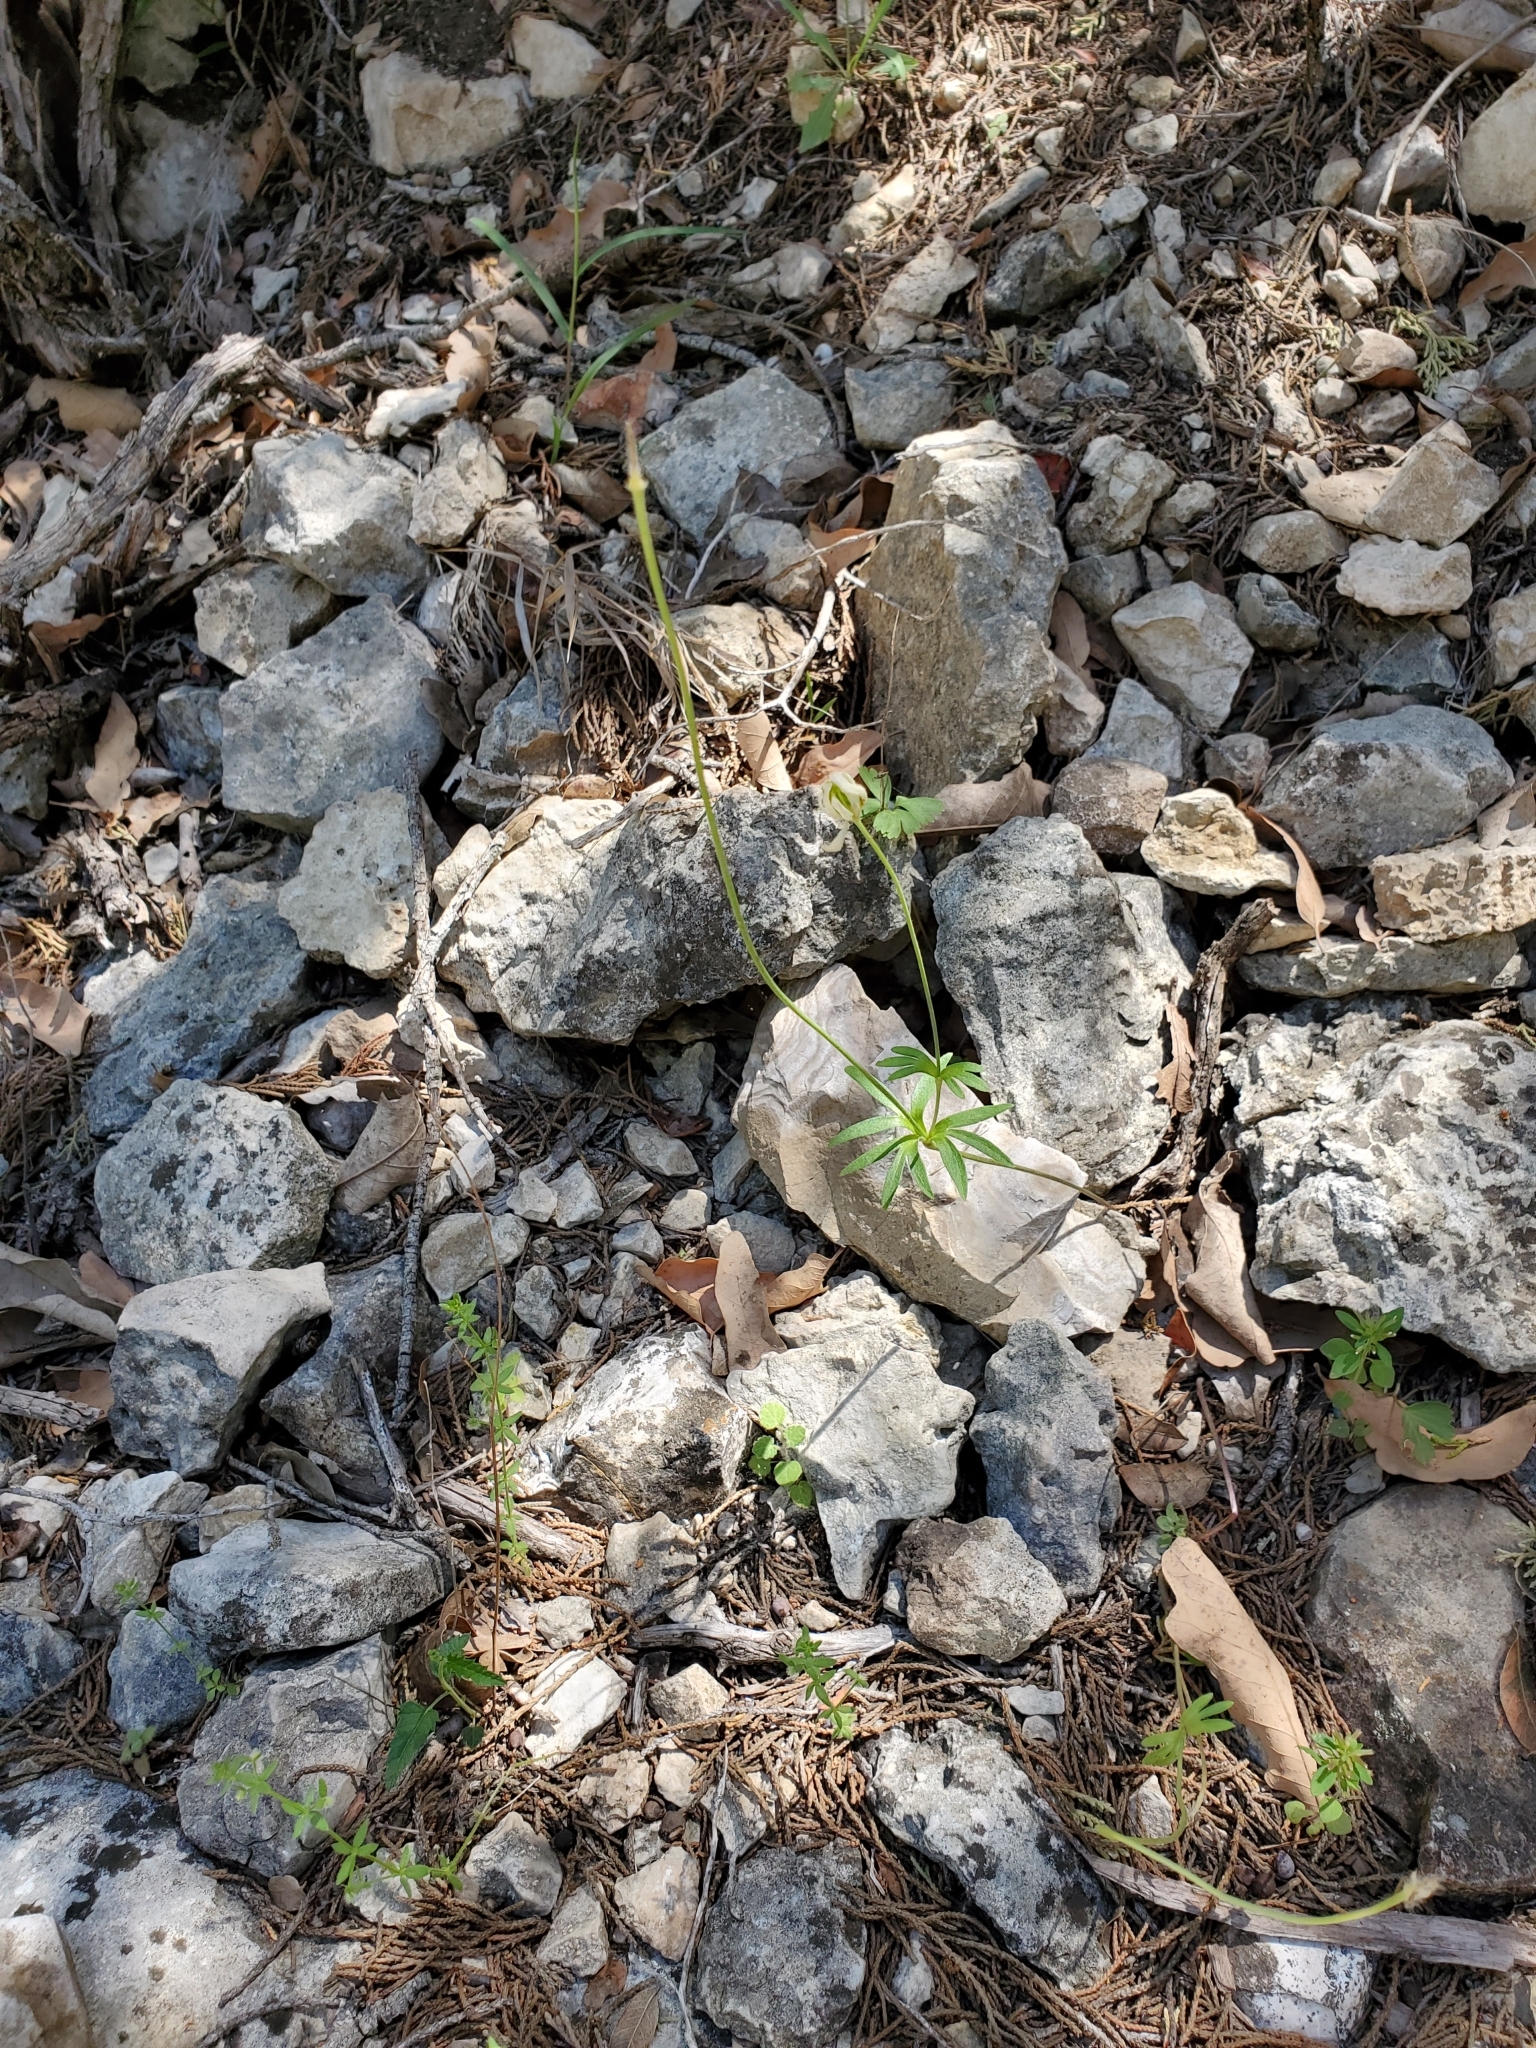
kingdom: Plantae
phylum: Tracheophyta
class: Magnoliopsida
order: Ranunculales
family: Ranunculaceae
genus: Anemone
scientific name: Anemone edwardsiana
